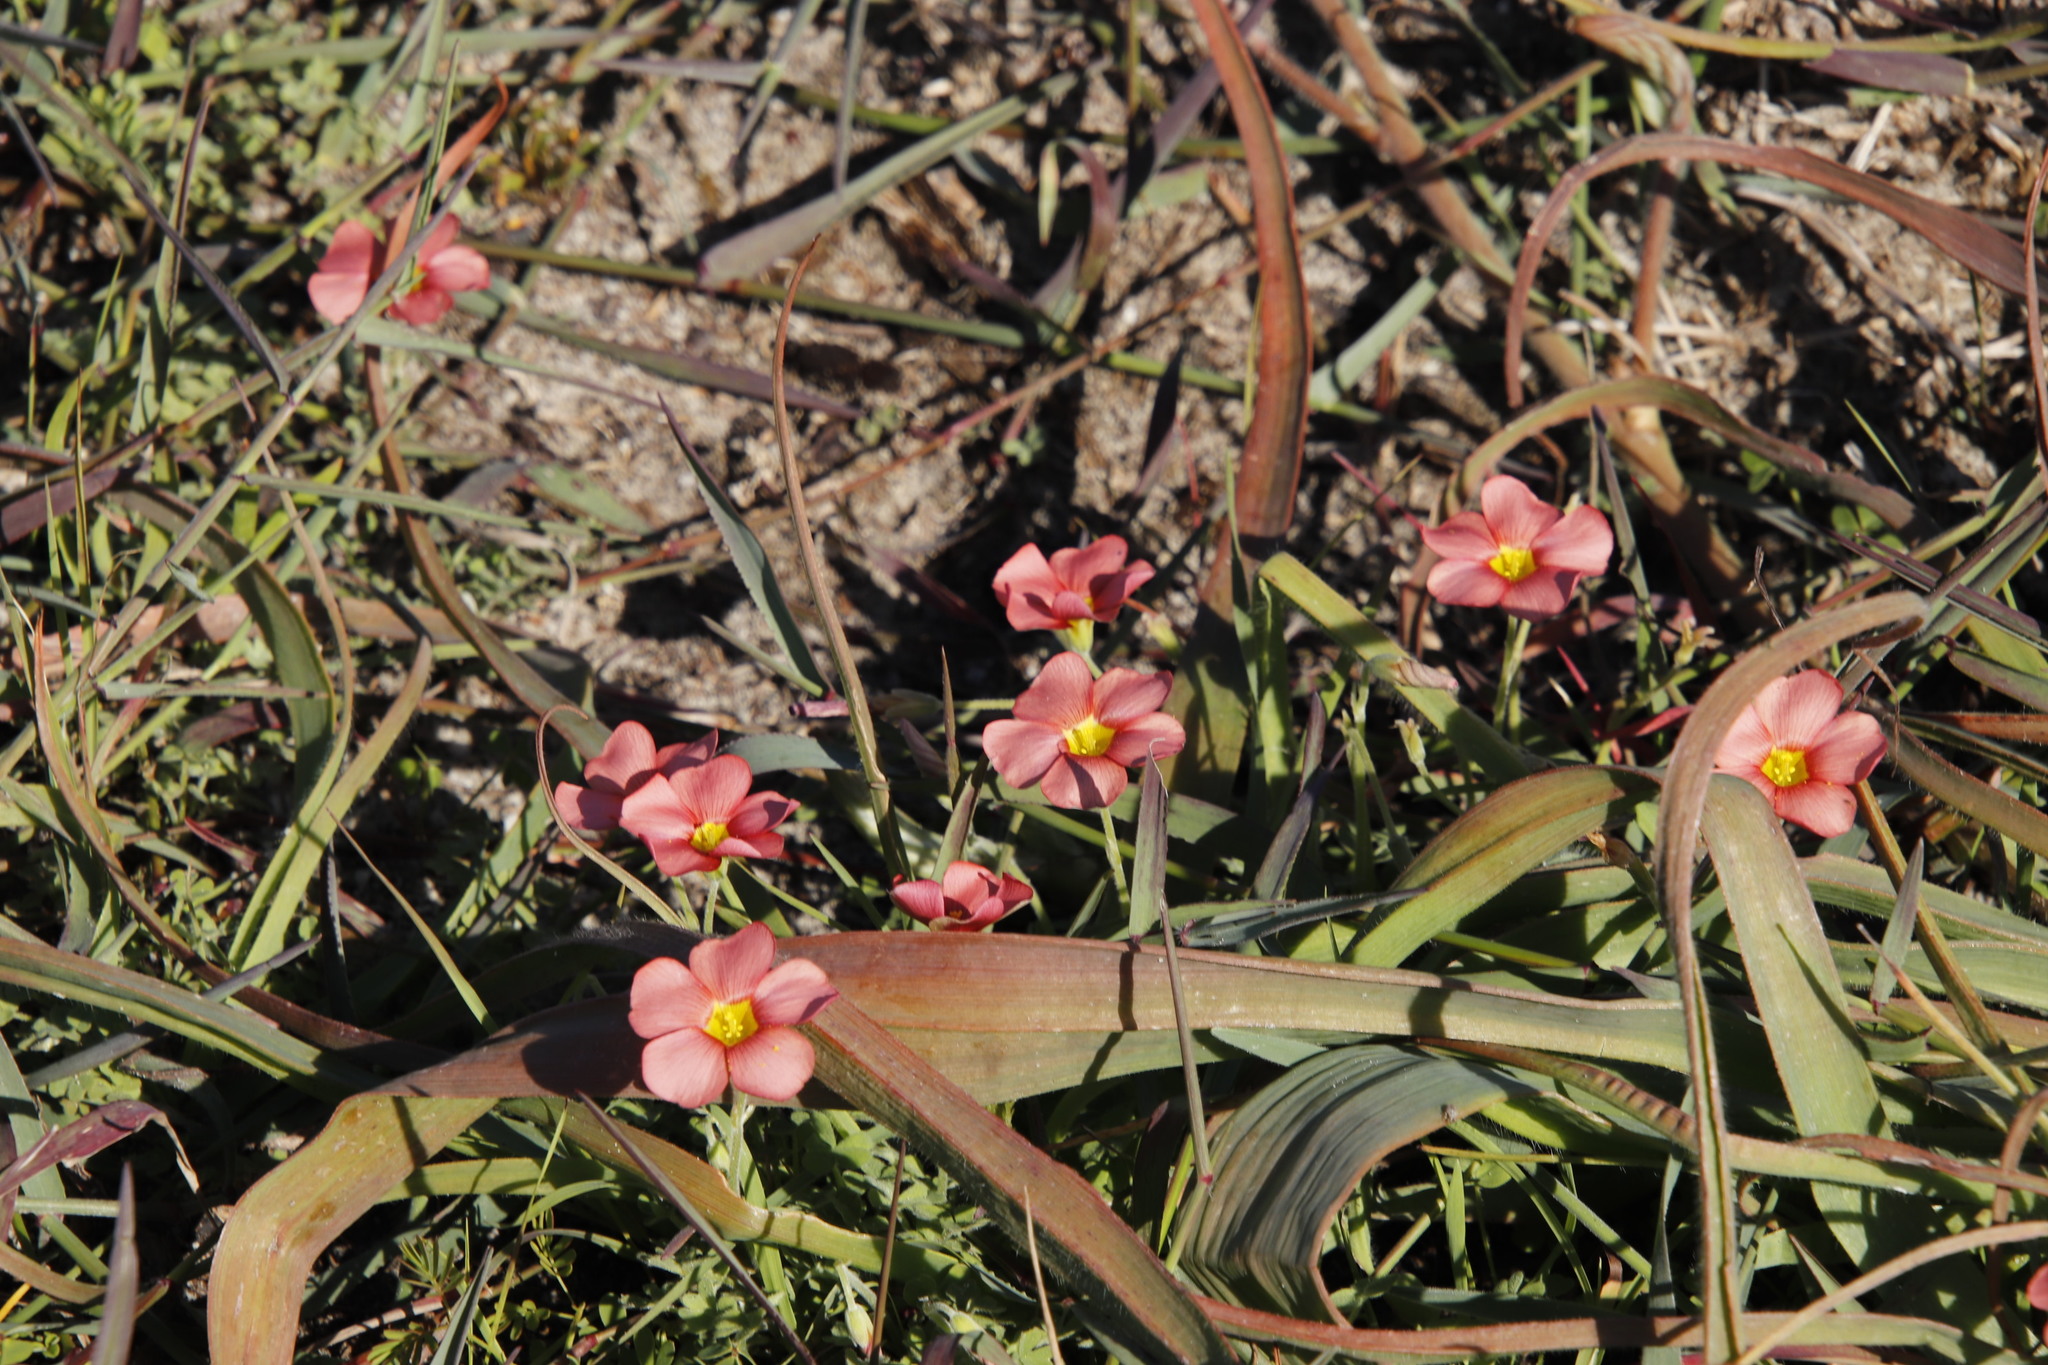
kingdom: Plantae
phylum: Tracheophyta
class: Magnoliopsida
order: Oxalidales
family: Oxalidaceae
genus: Oxalis
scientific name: Oxalis obtusa
